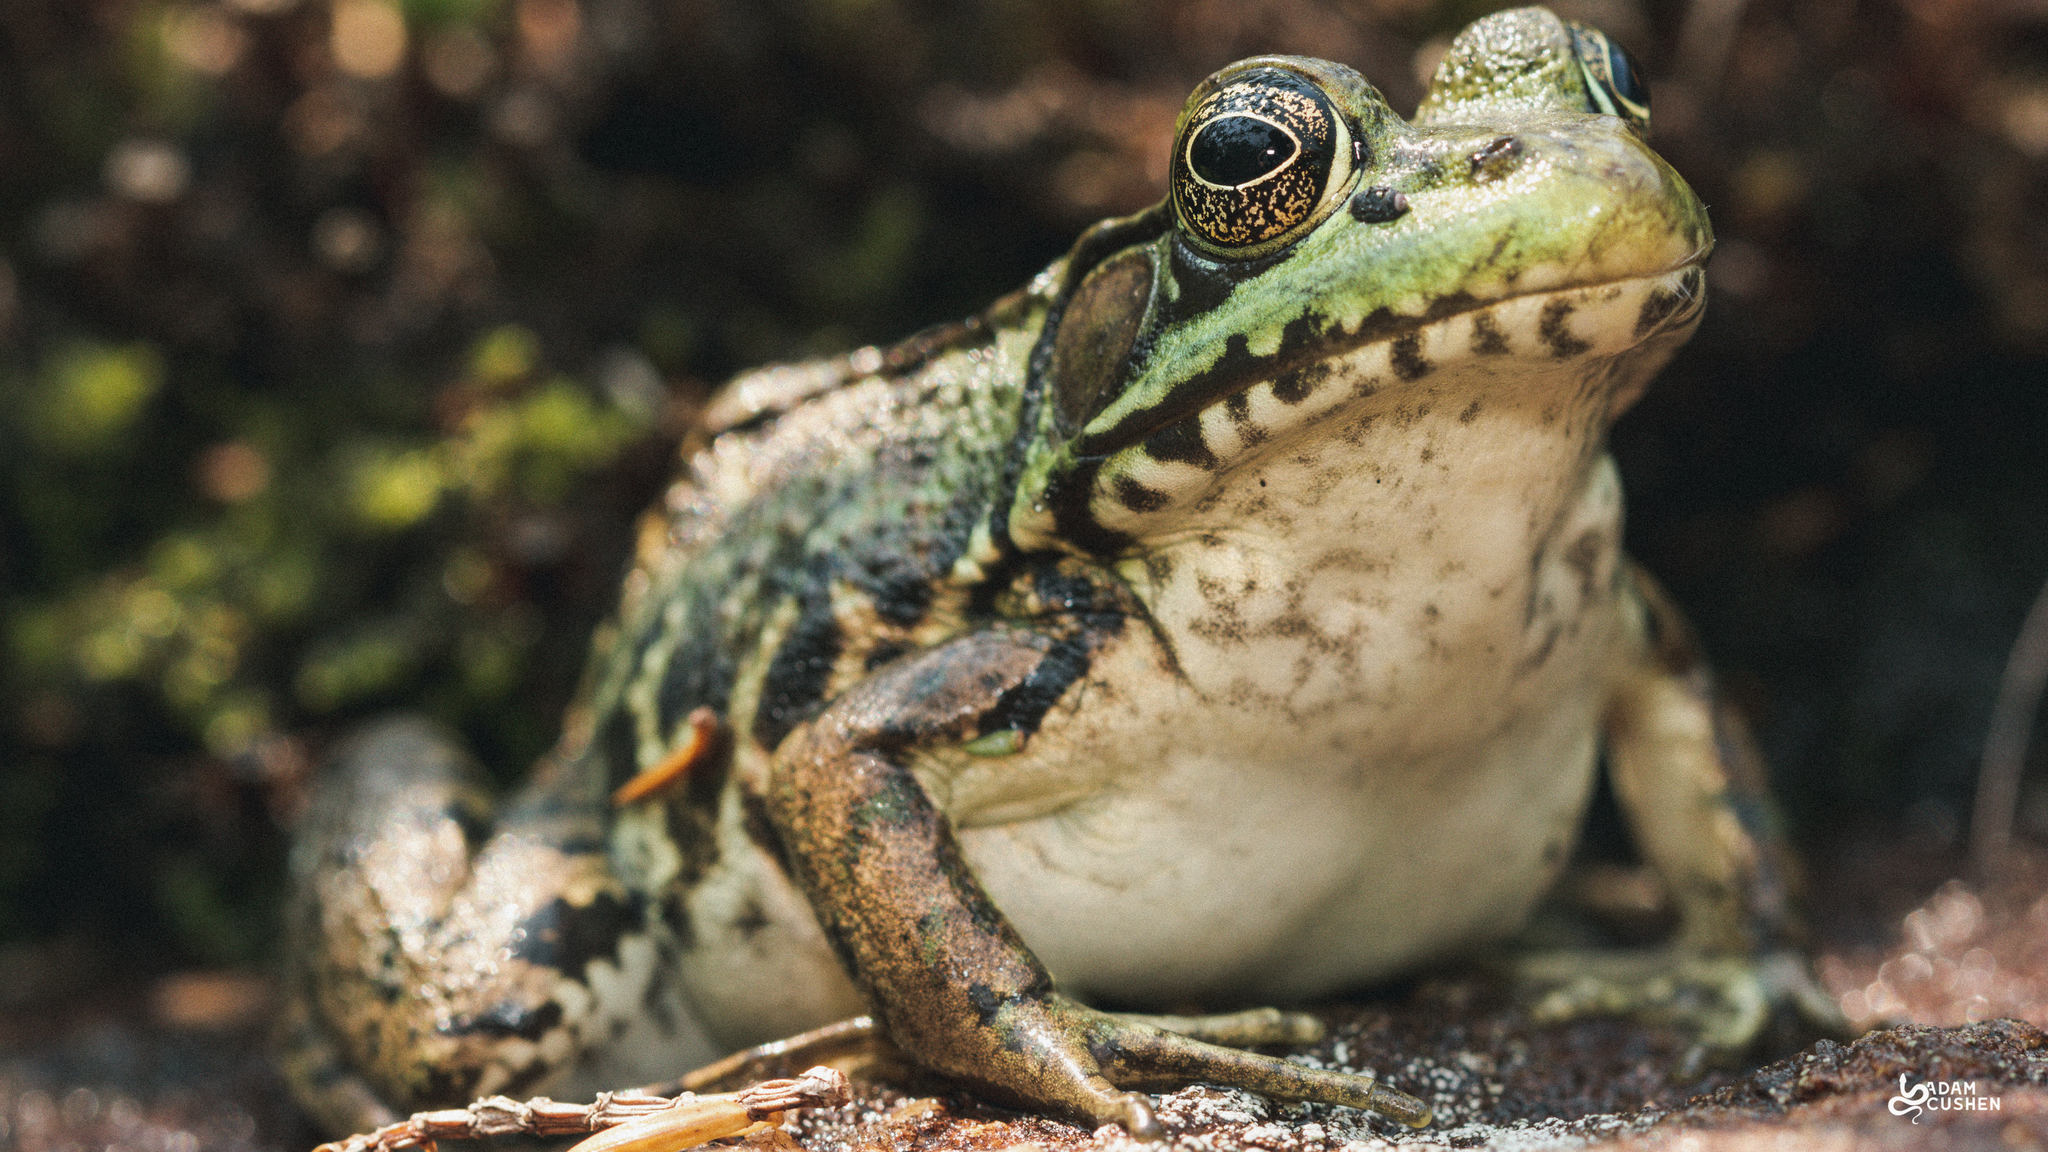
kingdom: Animalia
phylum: Chordata
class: Amphibia
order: Anura
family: Ranidae
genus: Lithobates
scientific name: Lithobates clamitans
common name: Green frog
